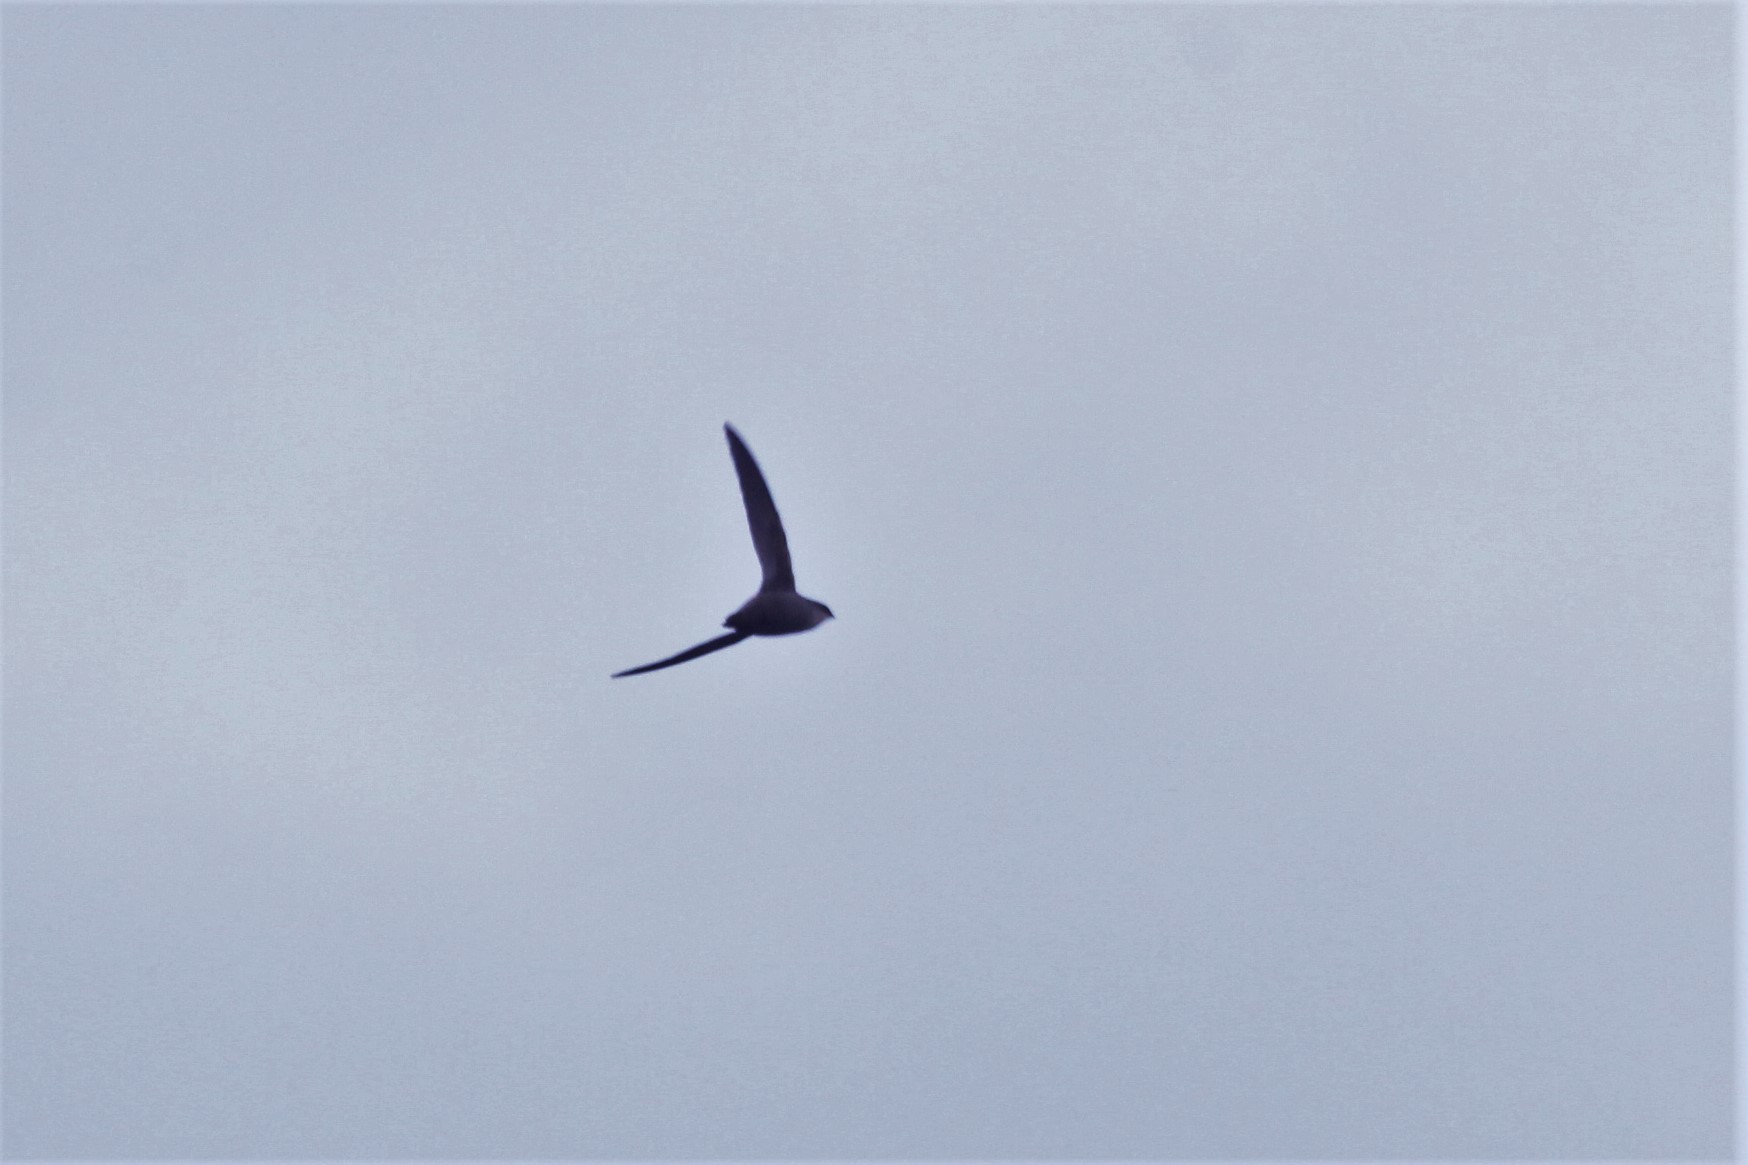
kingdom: Animalia
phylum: Chordata
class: Aves
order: Apodiformes
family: Apodidae
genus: Chaetura
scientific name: Chaetura pelagica
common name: Chimney swift
